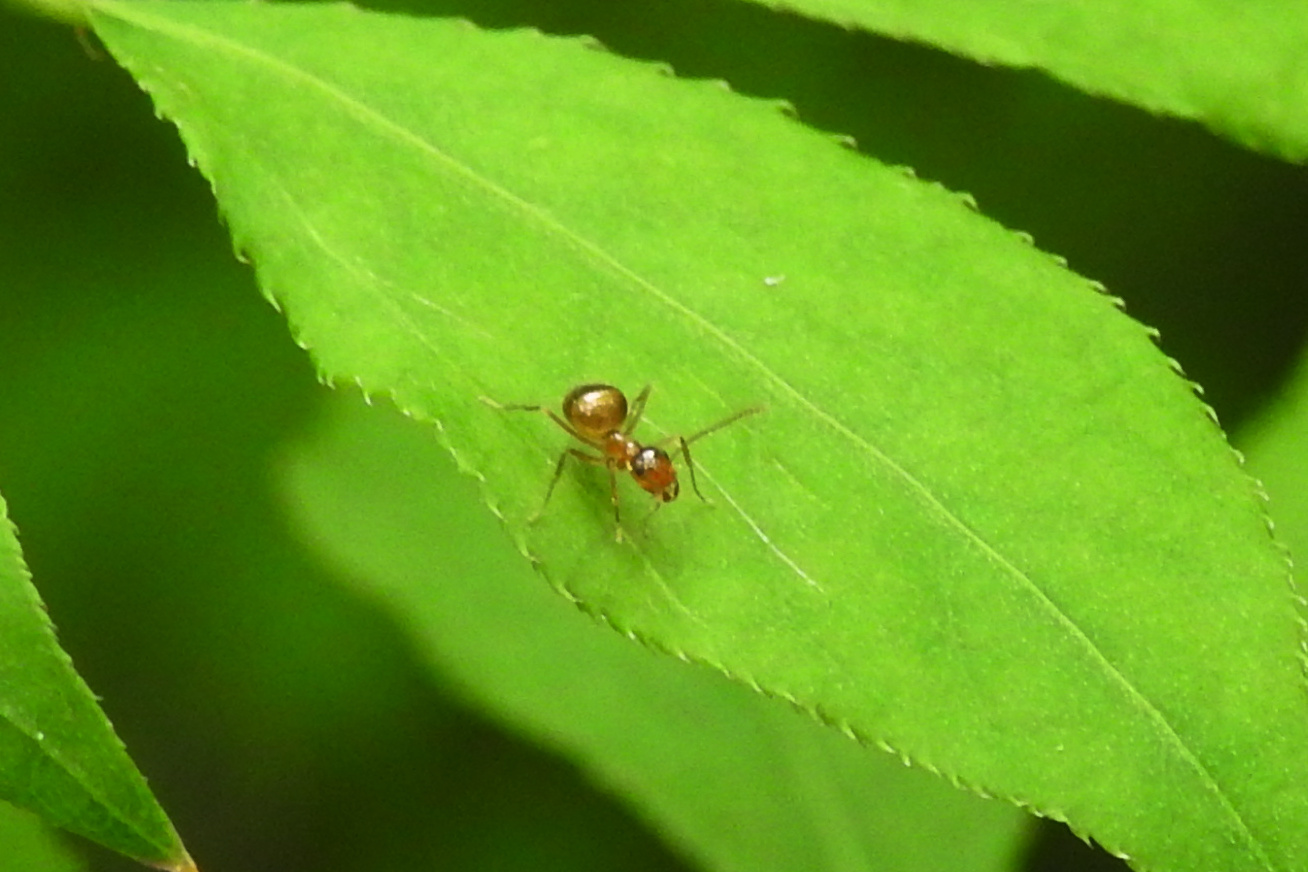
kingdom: Animalia
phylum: Arthropoda
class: Insecta
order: Hymenoptera
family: Formicidae
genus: Prenolepis
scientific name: Prenolepis imparis
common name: Small honey ant
